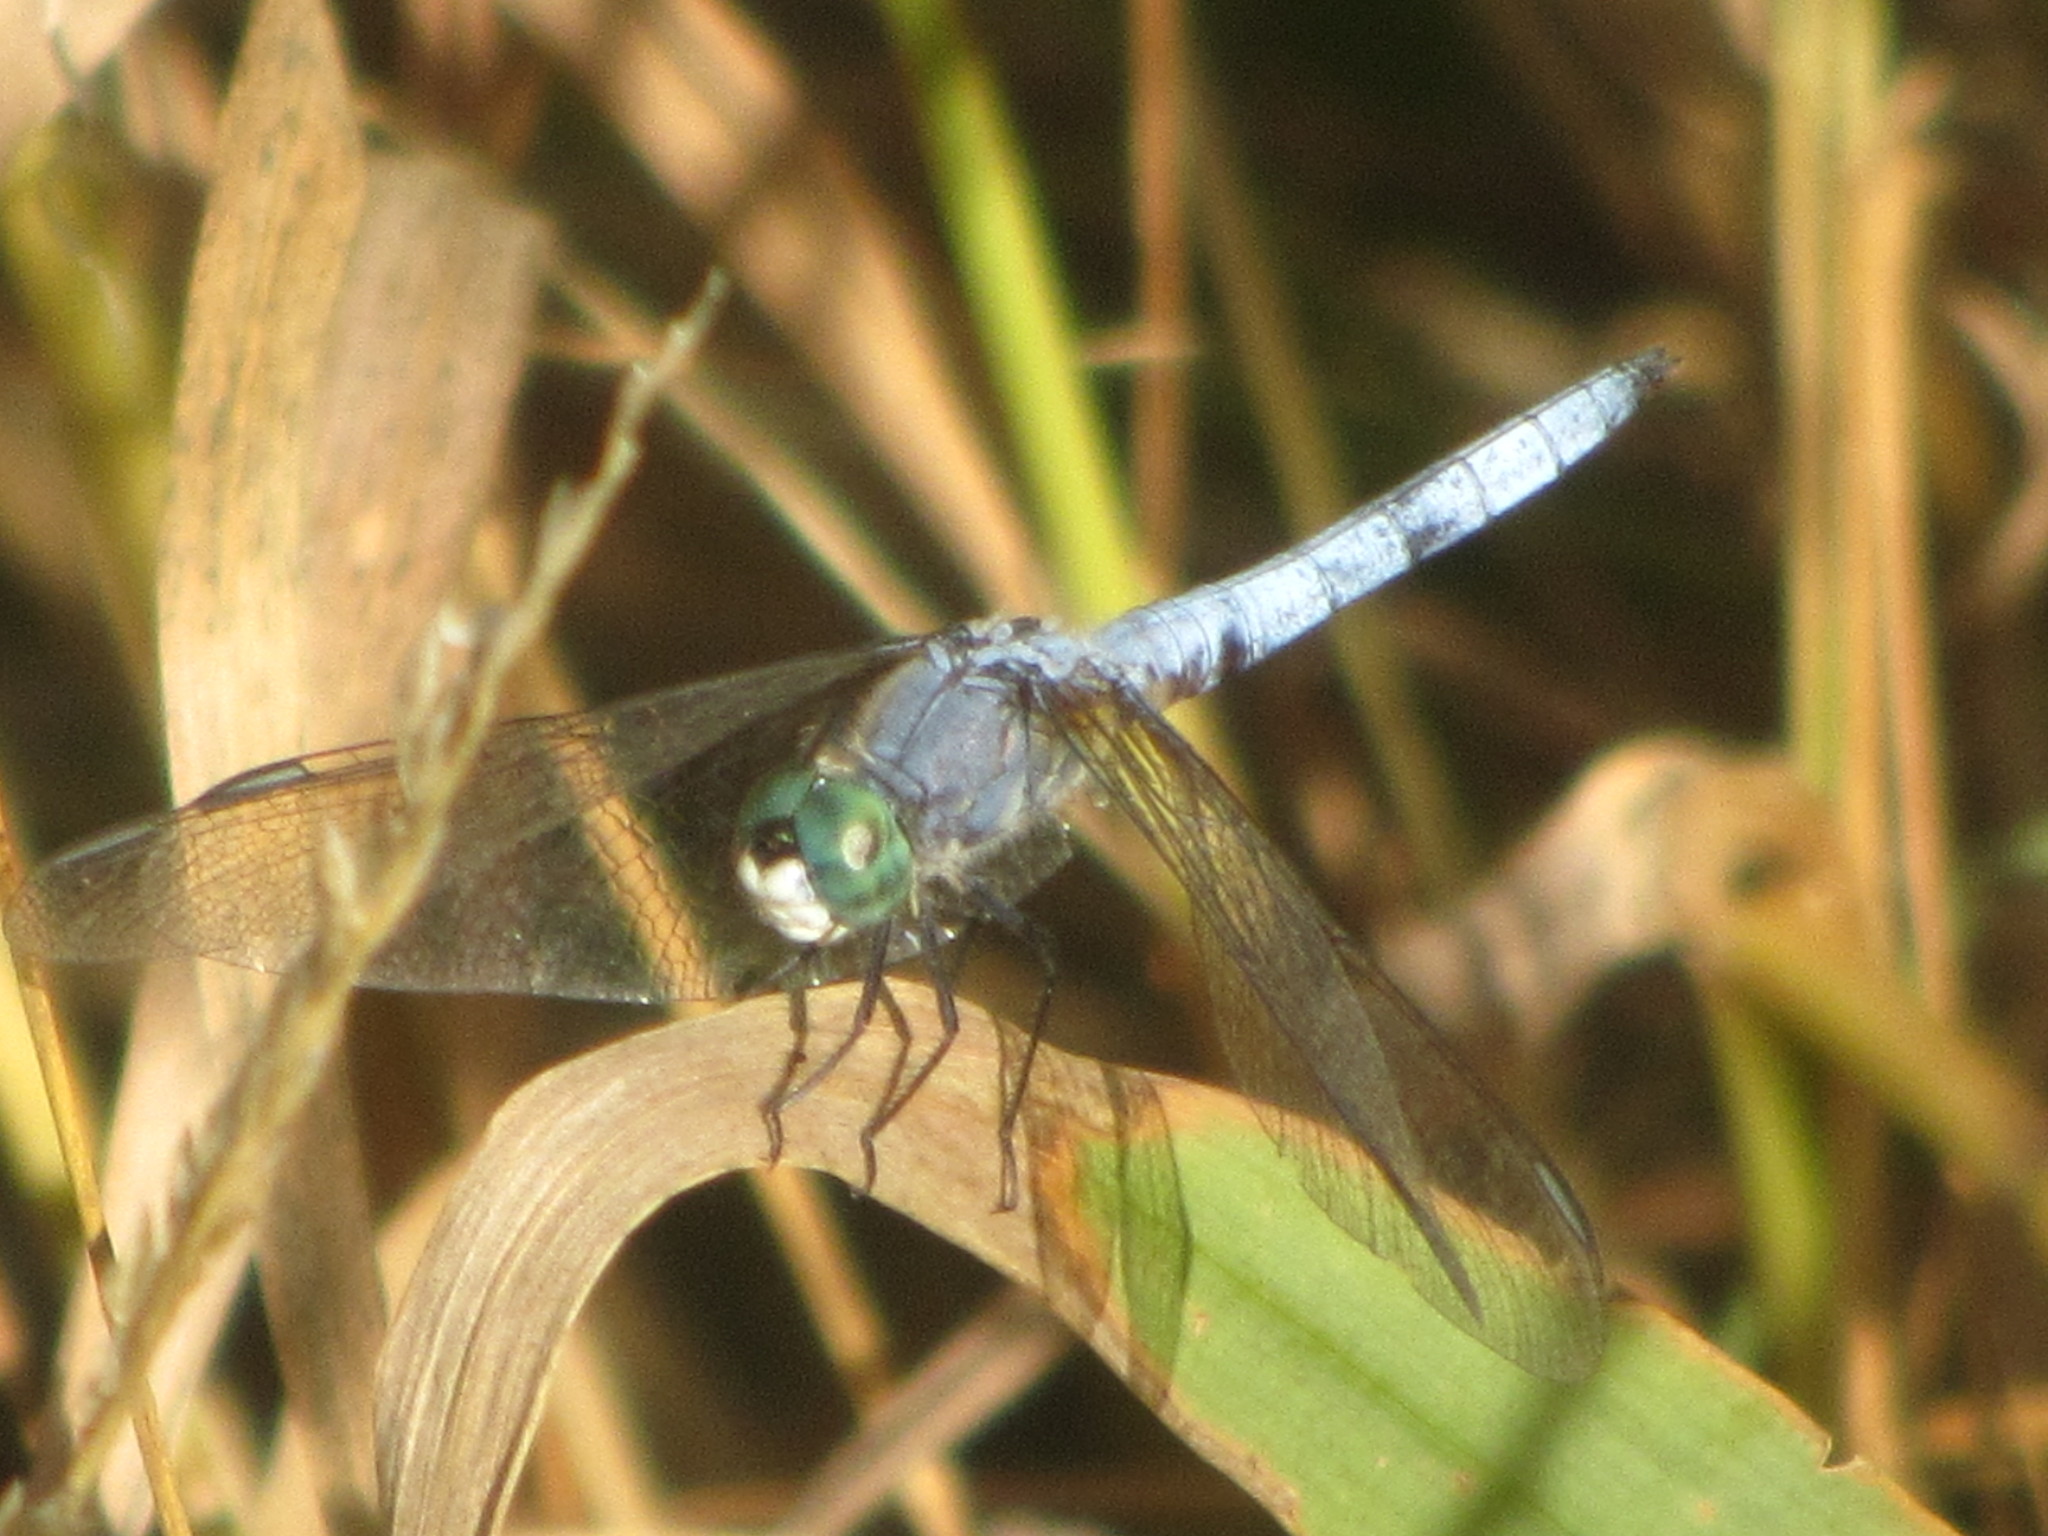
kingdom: Animalia
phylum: Arthropoda
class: Insecta
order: Odonata
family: Libellulidae
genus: Pachydiplax
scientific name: Pachydiplax longipennis
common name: Blue dasher
